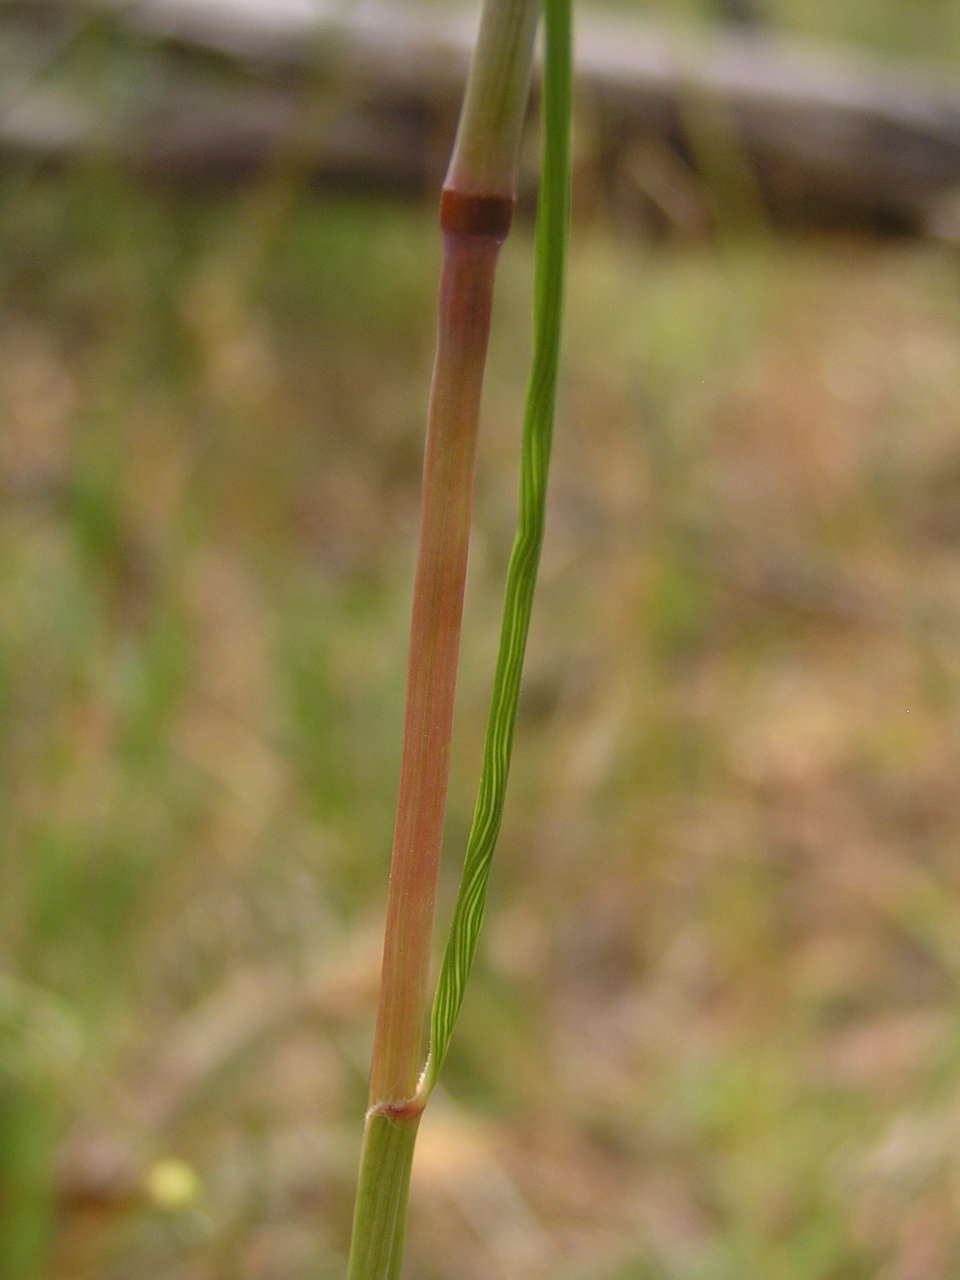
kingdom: Plantae
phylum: Tracheophyta
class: Liliopsida
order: Poales
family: Poaceae
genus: Rytidosperma
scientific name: Rytidosperma pallidum
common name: Red-anther wallaby grass
